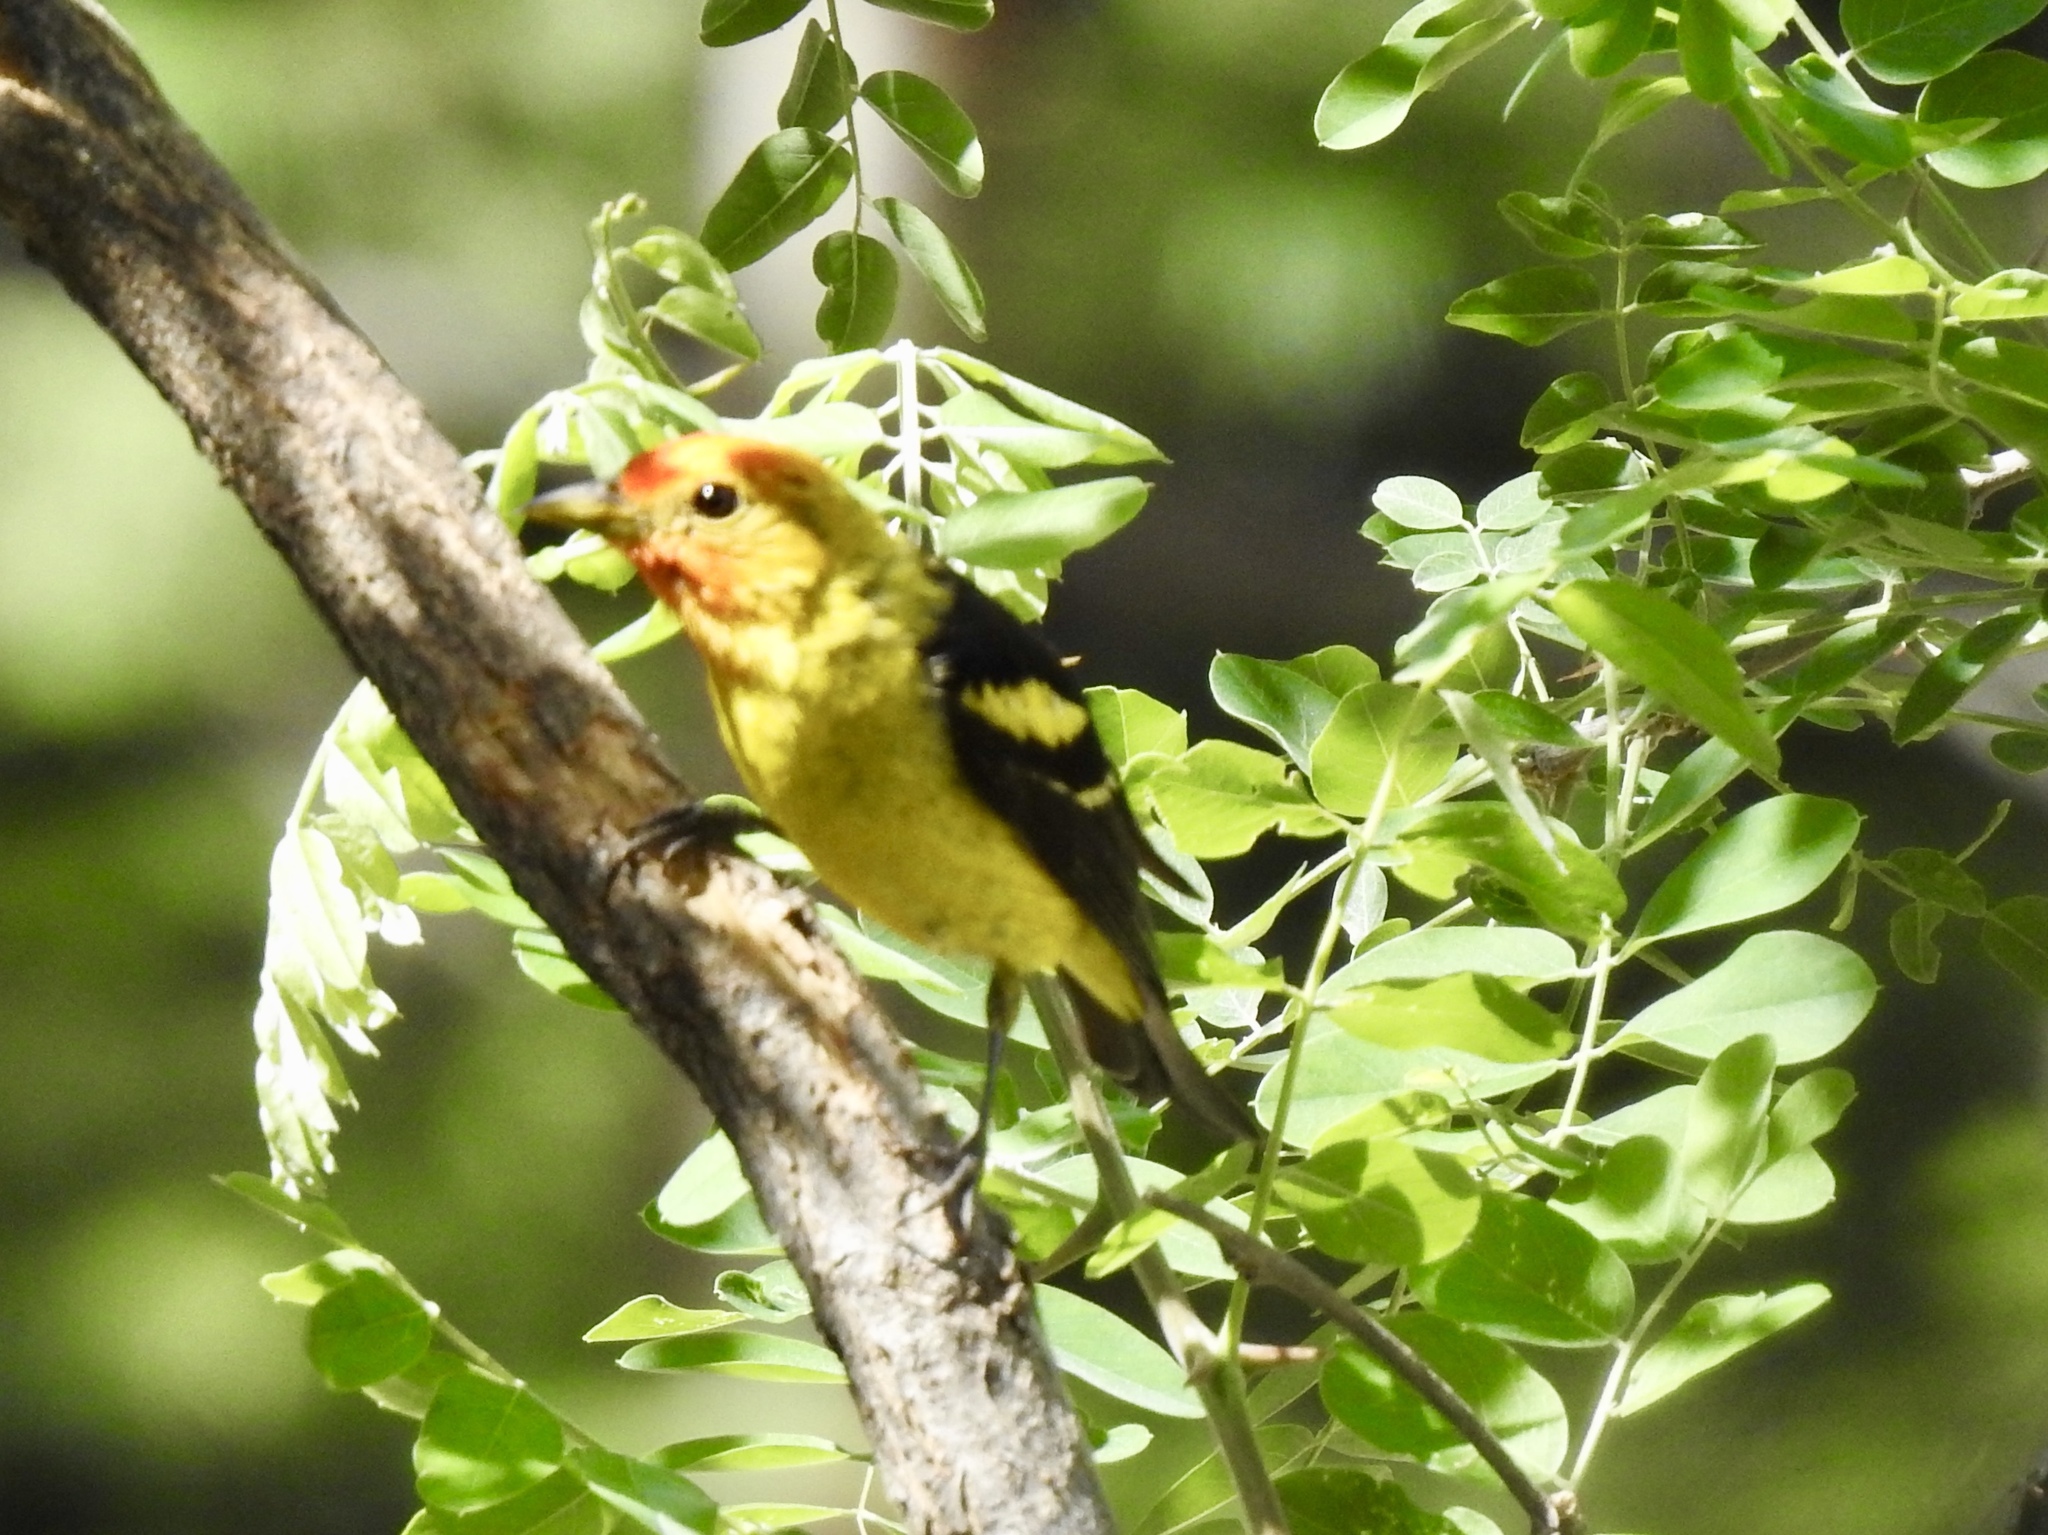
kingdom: Animalia
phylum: Chordata
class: Aves
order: Passeriformes
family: Cardinalidae
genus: Piranga
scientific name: Piranga ludoviciana
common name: Western tanager
